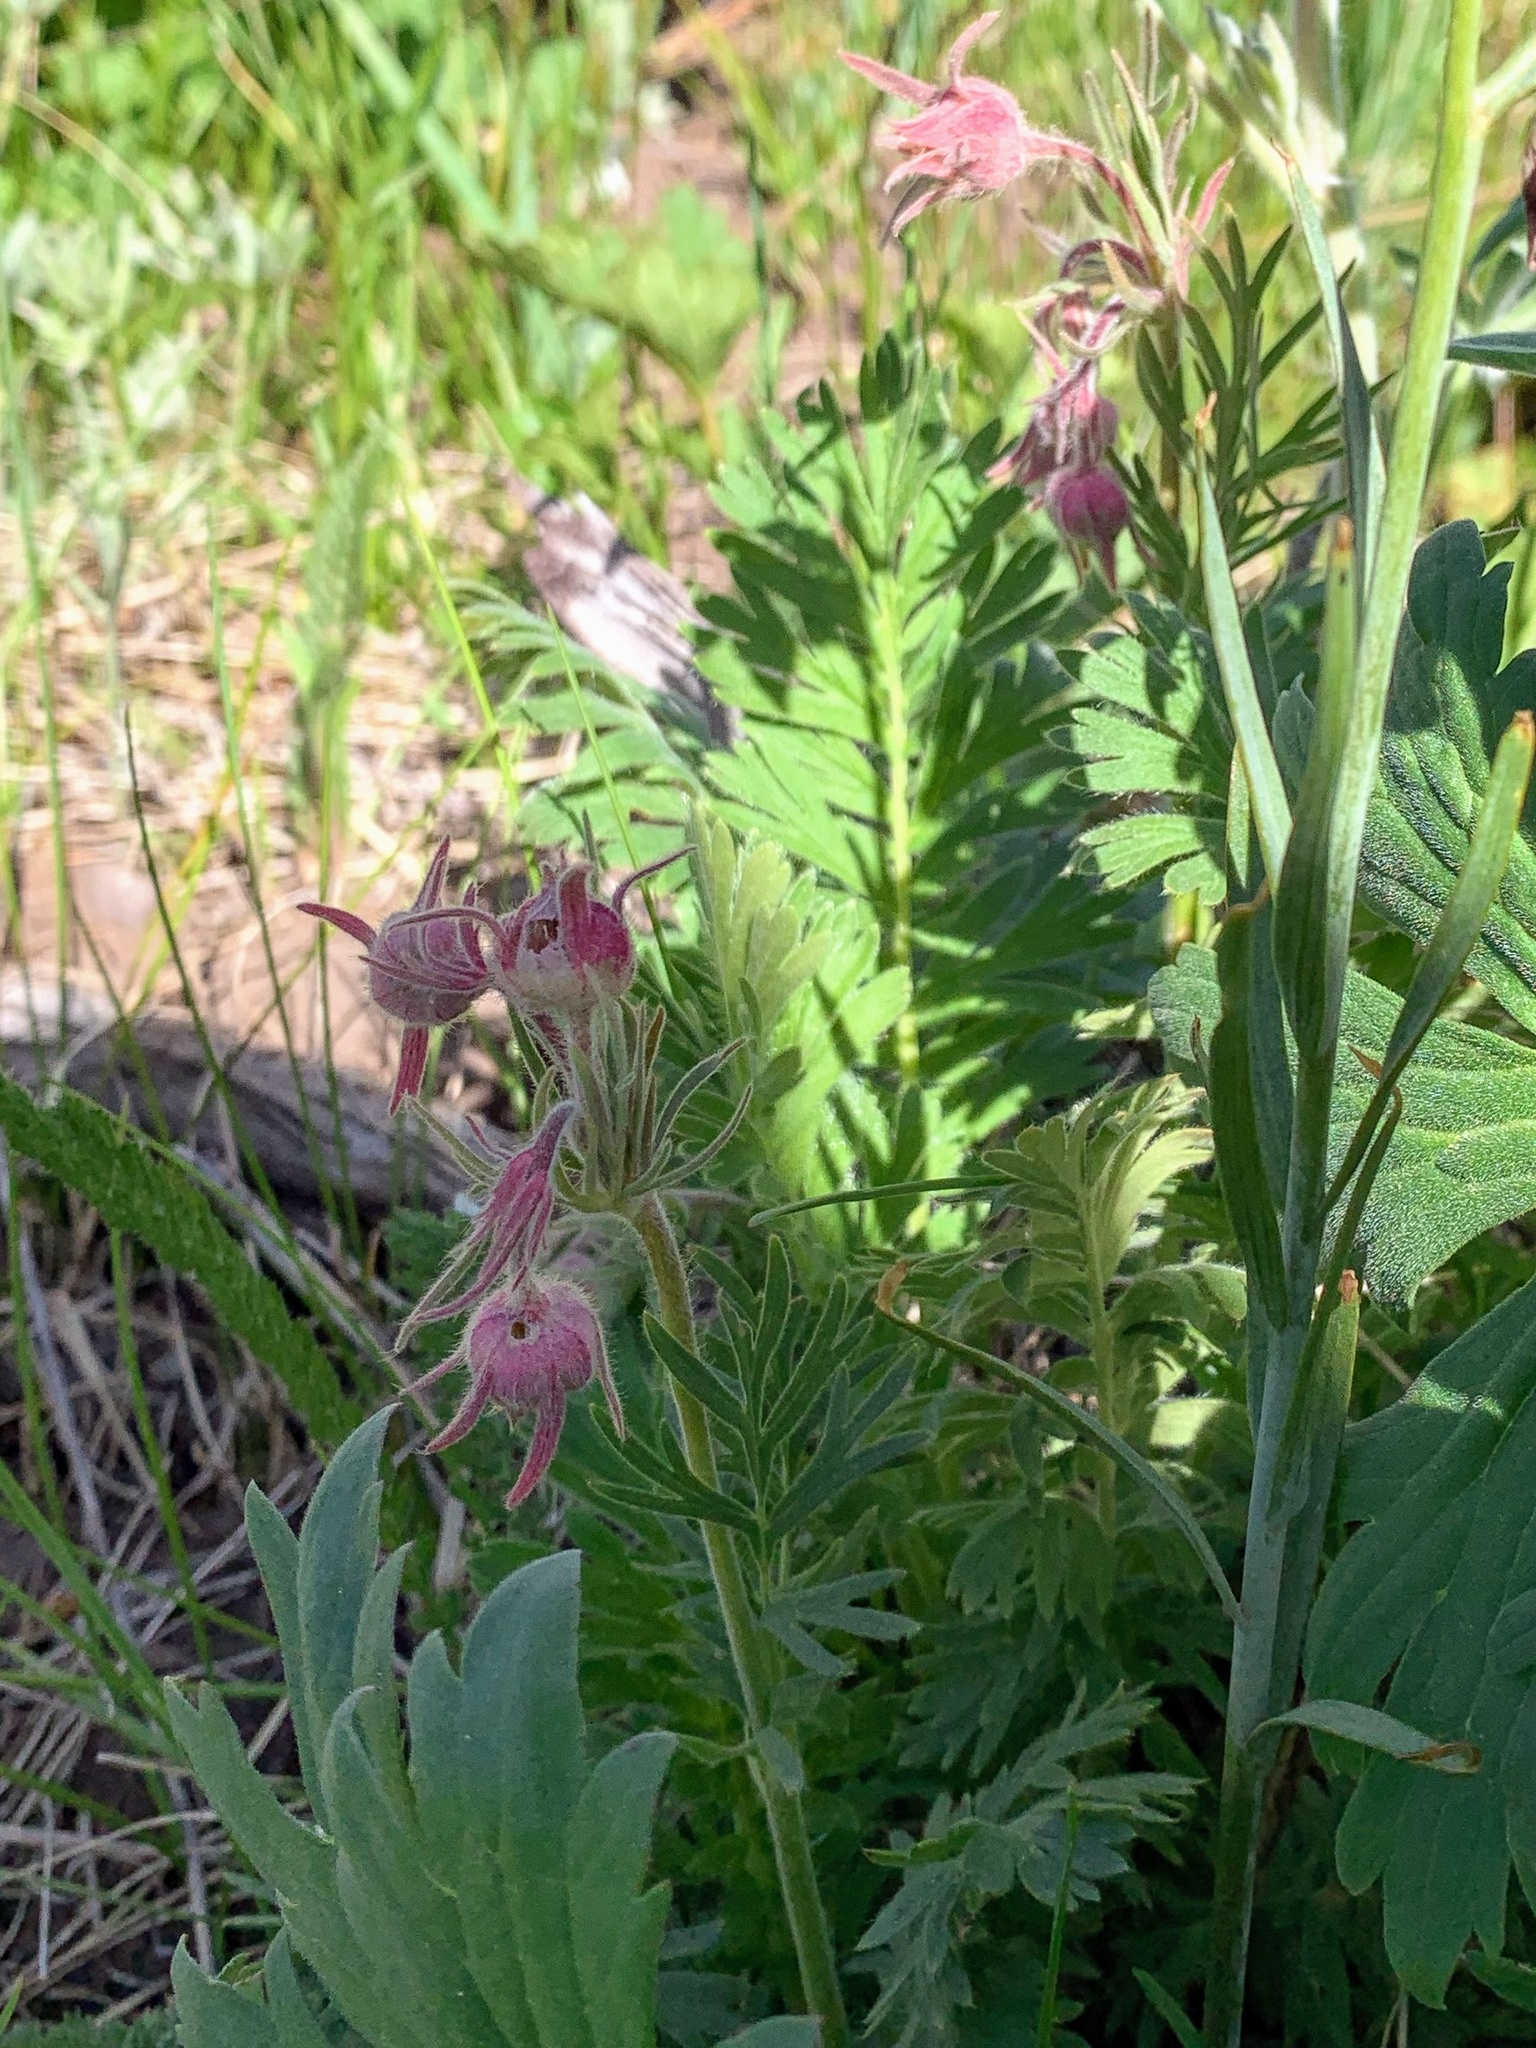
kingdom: Plantae
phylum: Tracheophyta
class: Magnoliopsida
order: Rosales
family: Rosaceae
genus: Geum
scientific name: Geum triflorum
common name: Old man's whiskers
